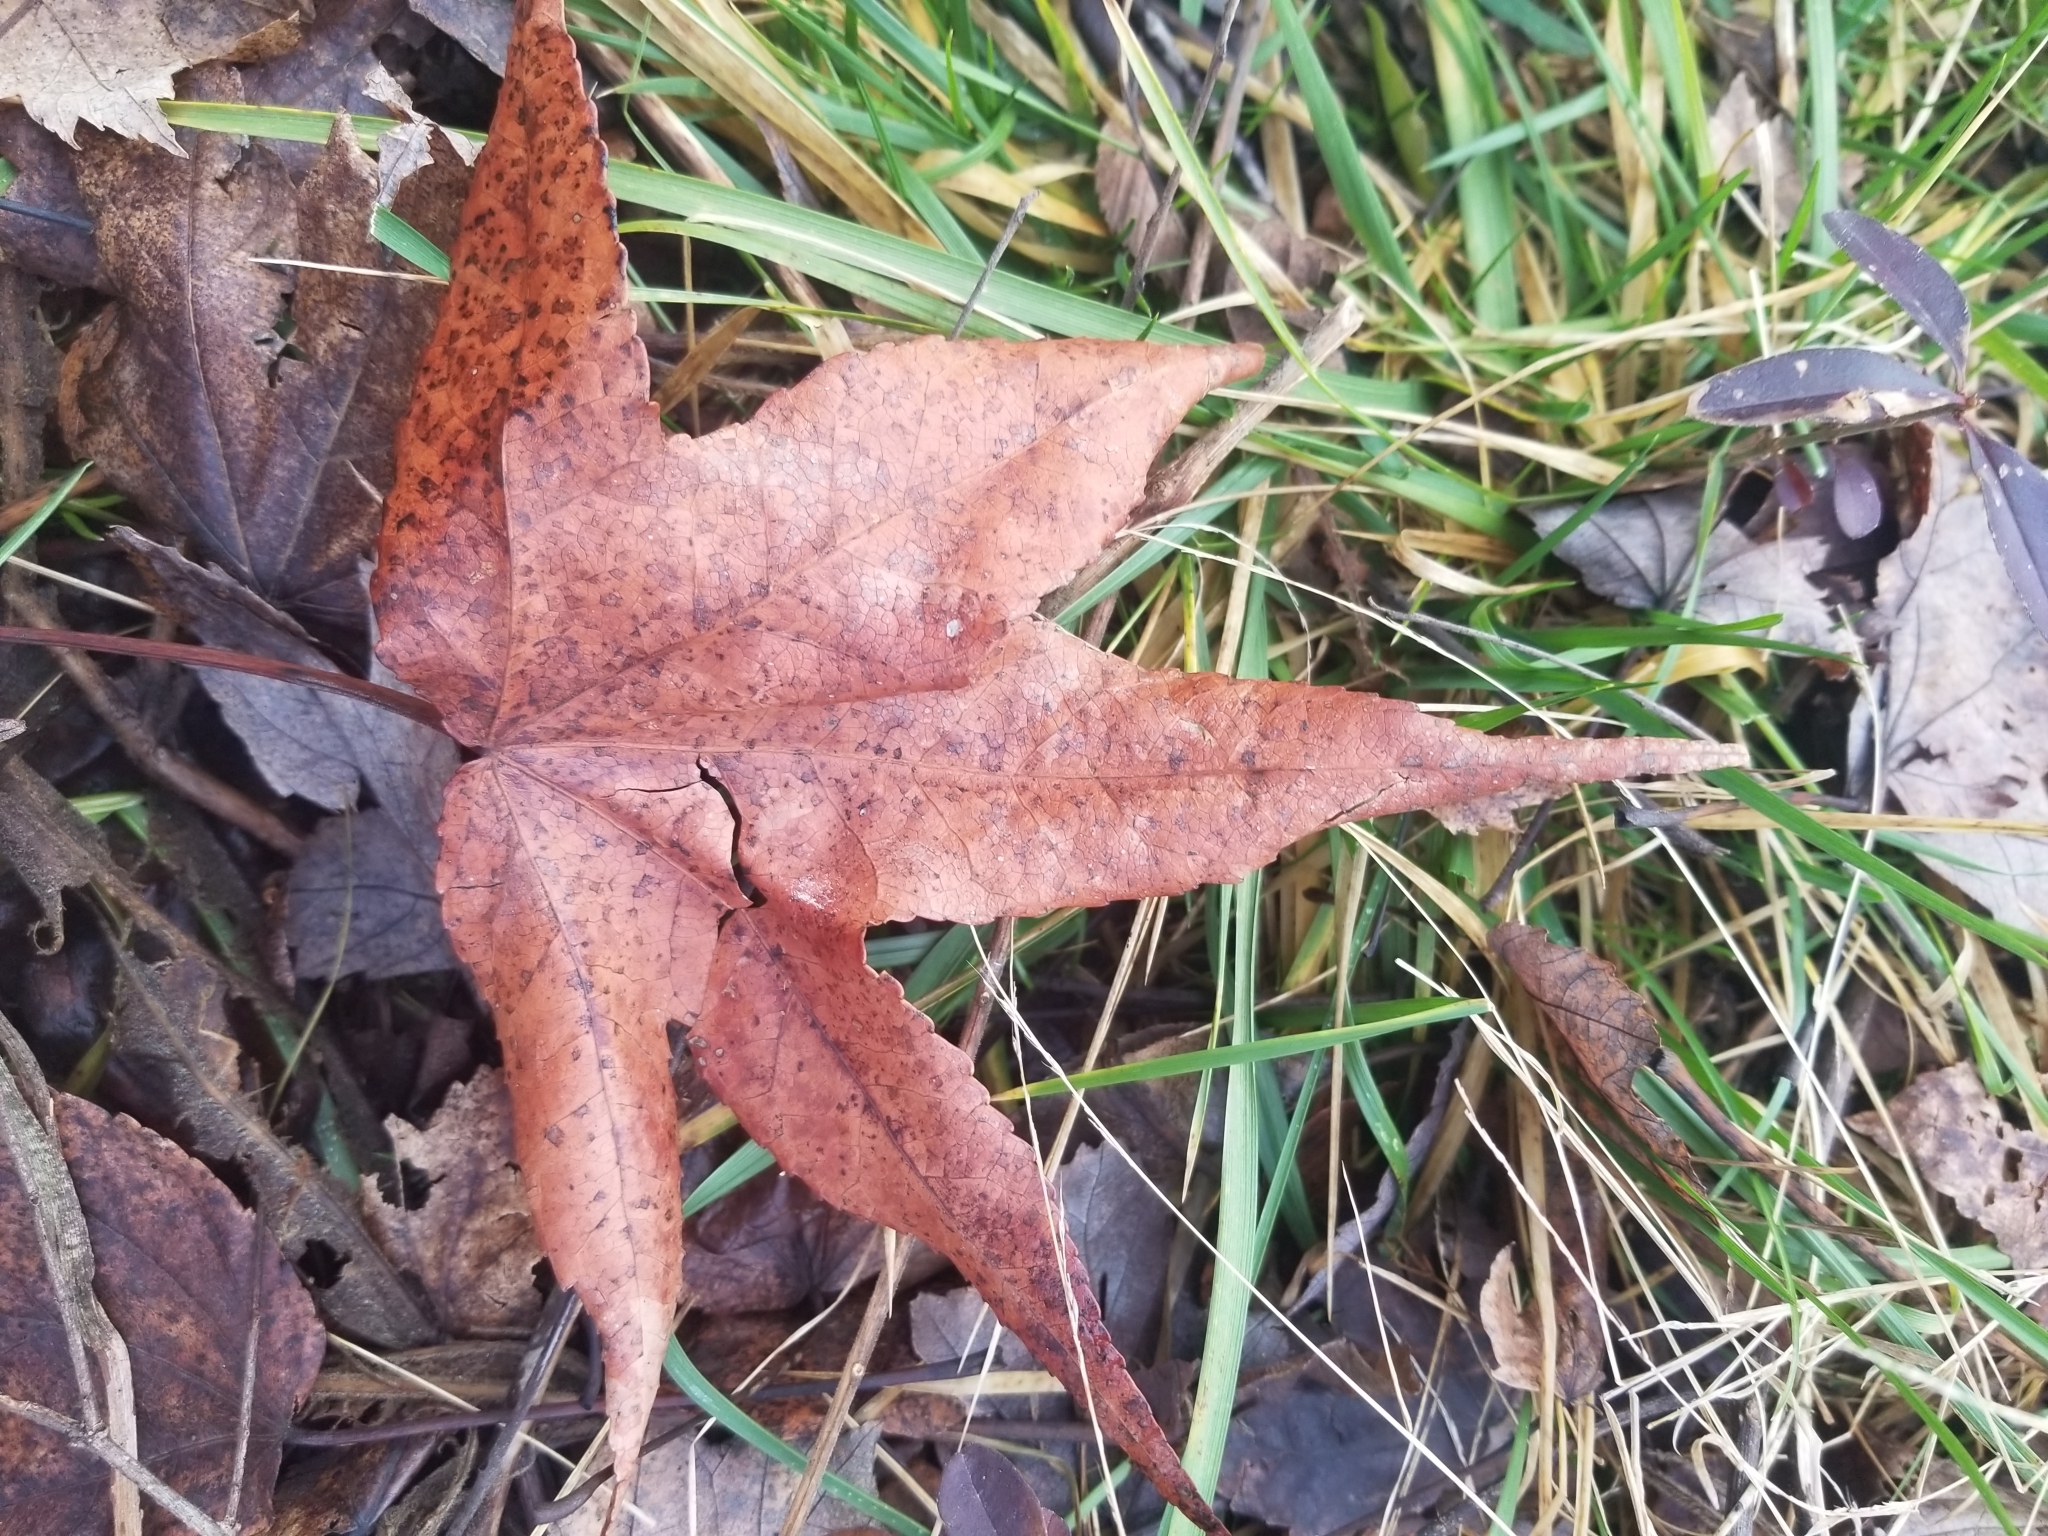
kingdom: Plantae
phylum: Tracheophyta
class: Magnoliopsida
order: Saxifragales
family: Altingiaceae
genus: Liquidambar
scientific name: Liquidambar styraciflua
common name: Sweet gum
